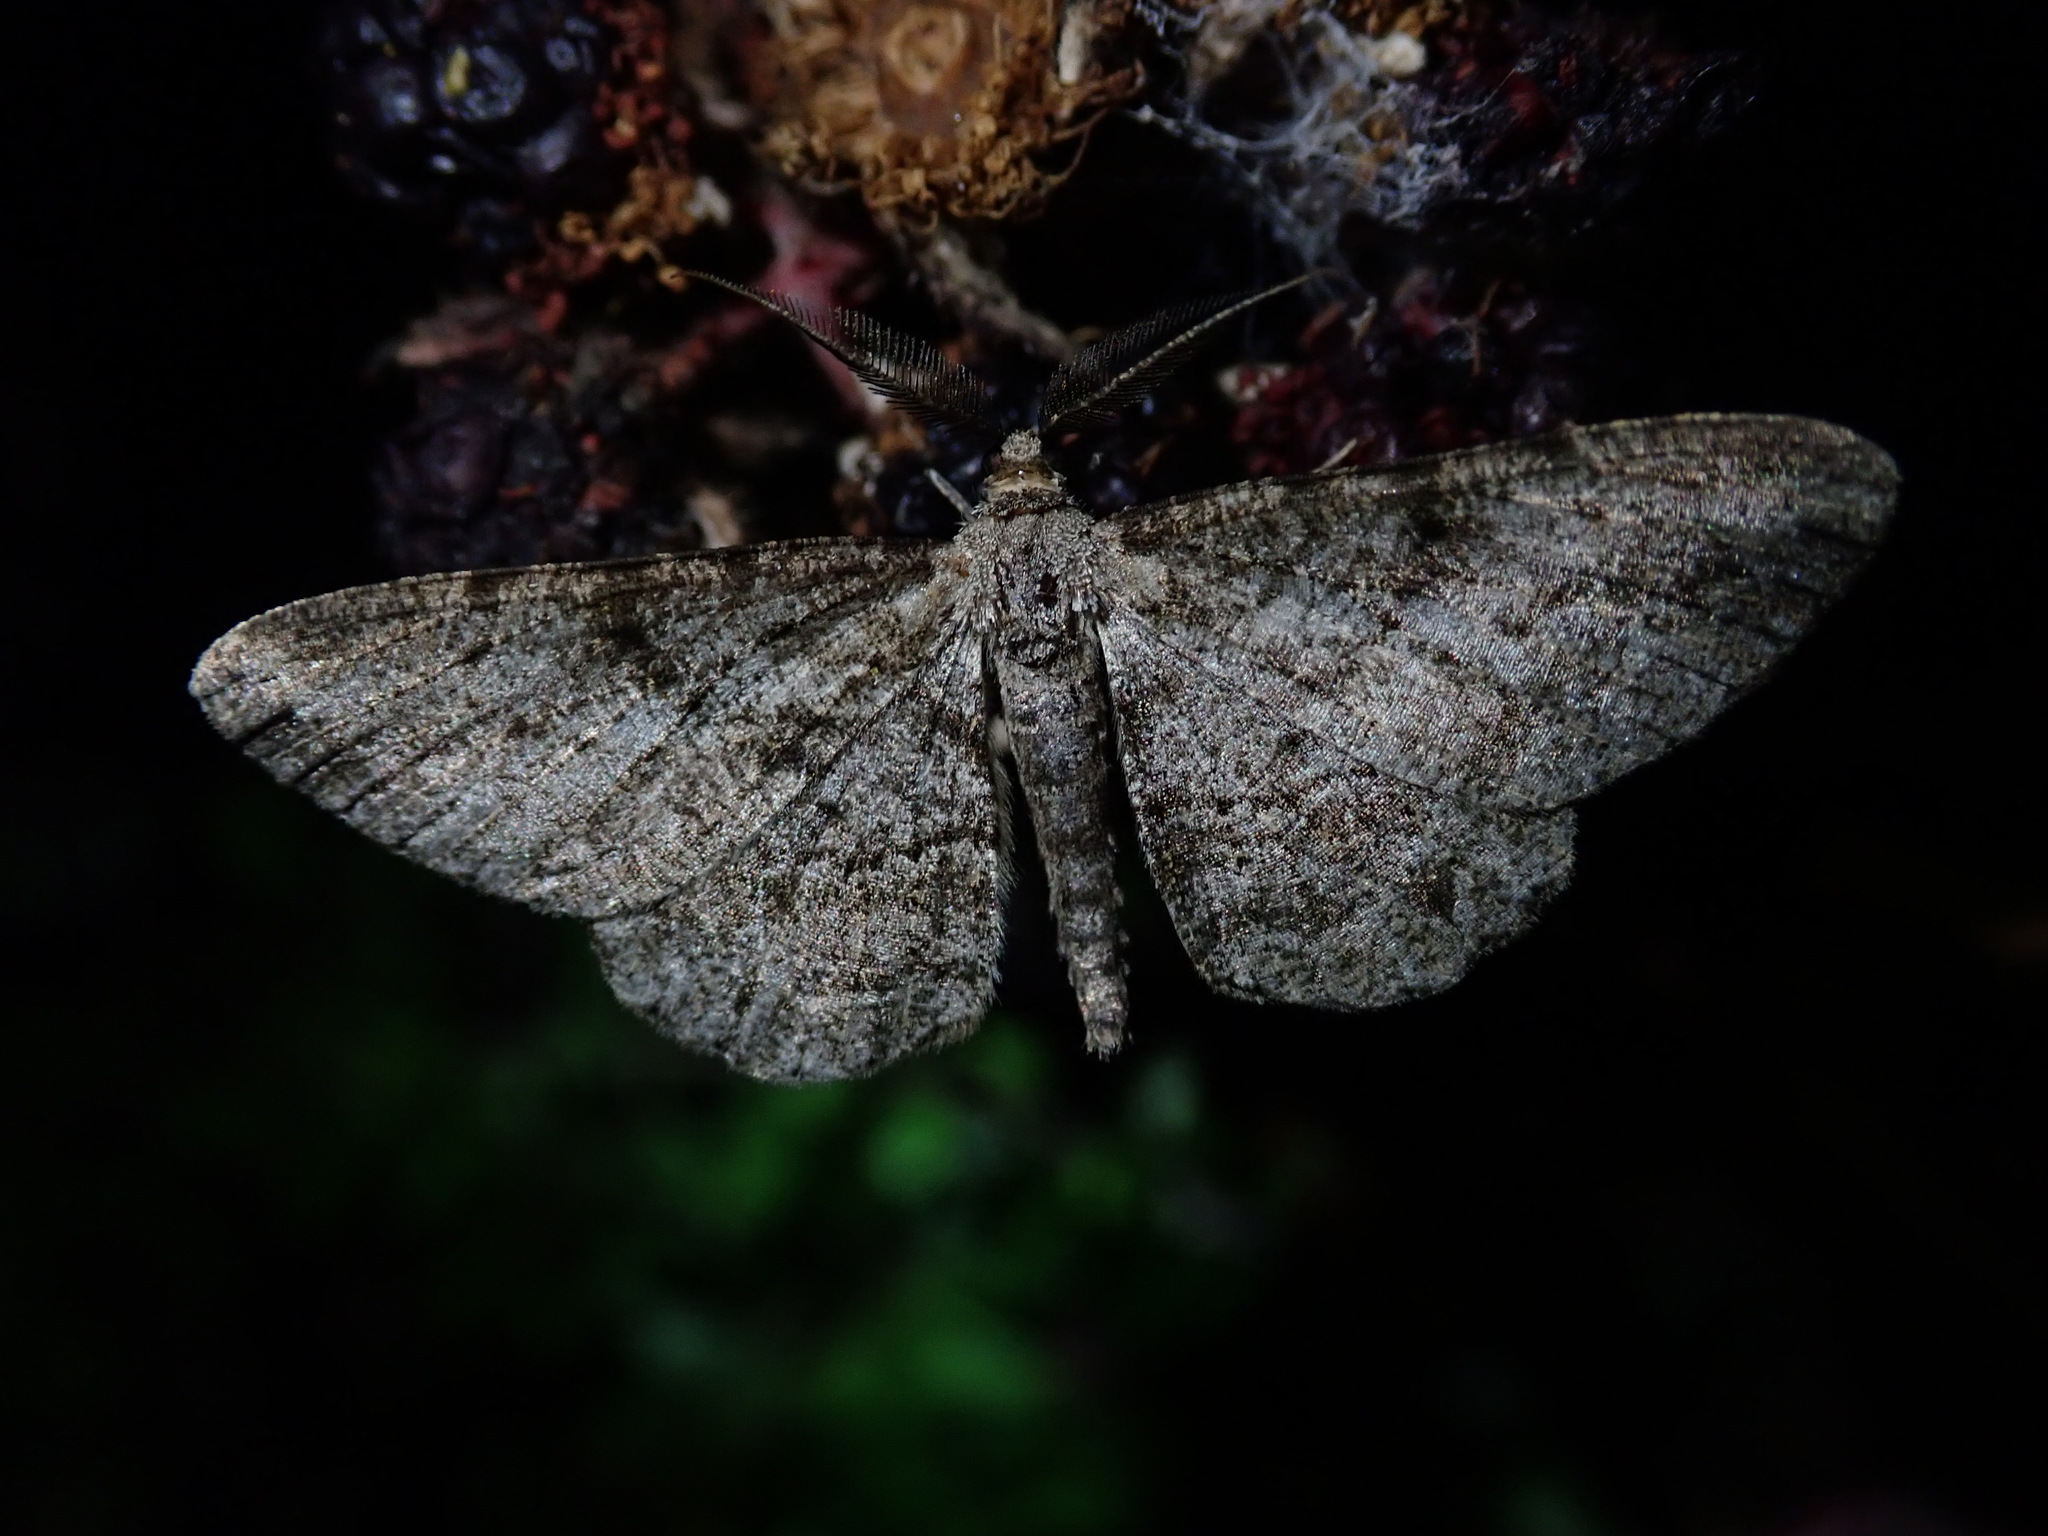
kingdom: Animalia
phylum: Arthropoda
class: Insecta
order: Lepidoptera
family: Geometridae
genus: Peribatodes
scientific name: Peribatodes rhomboidaria
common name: Willow beauty
